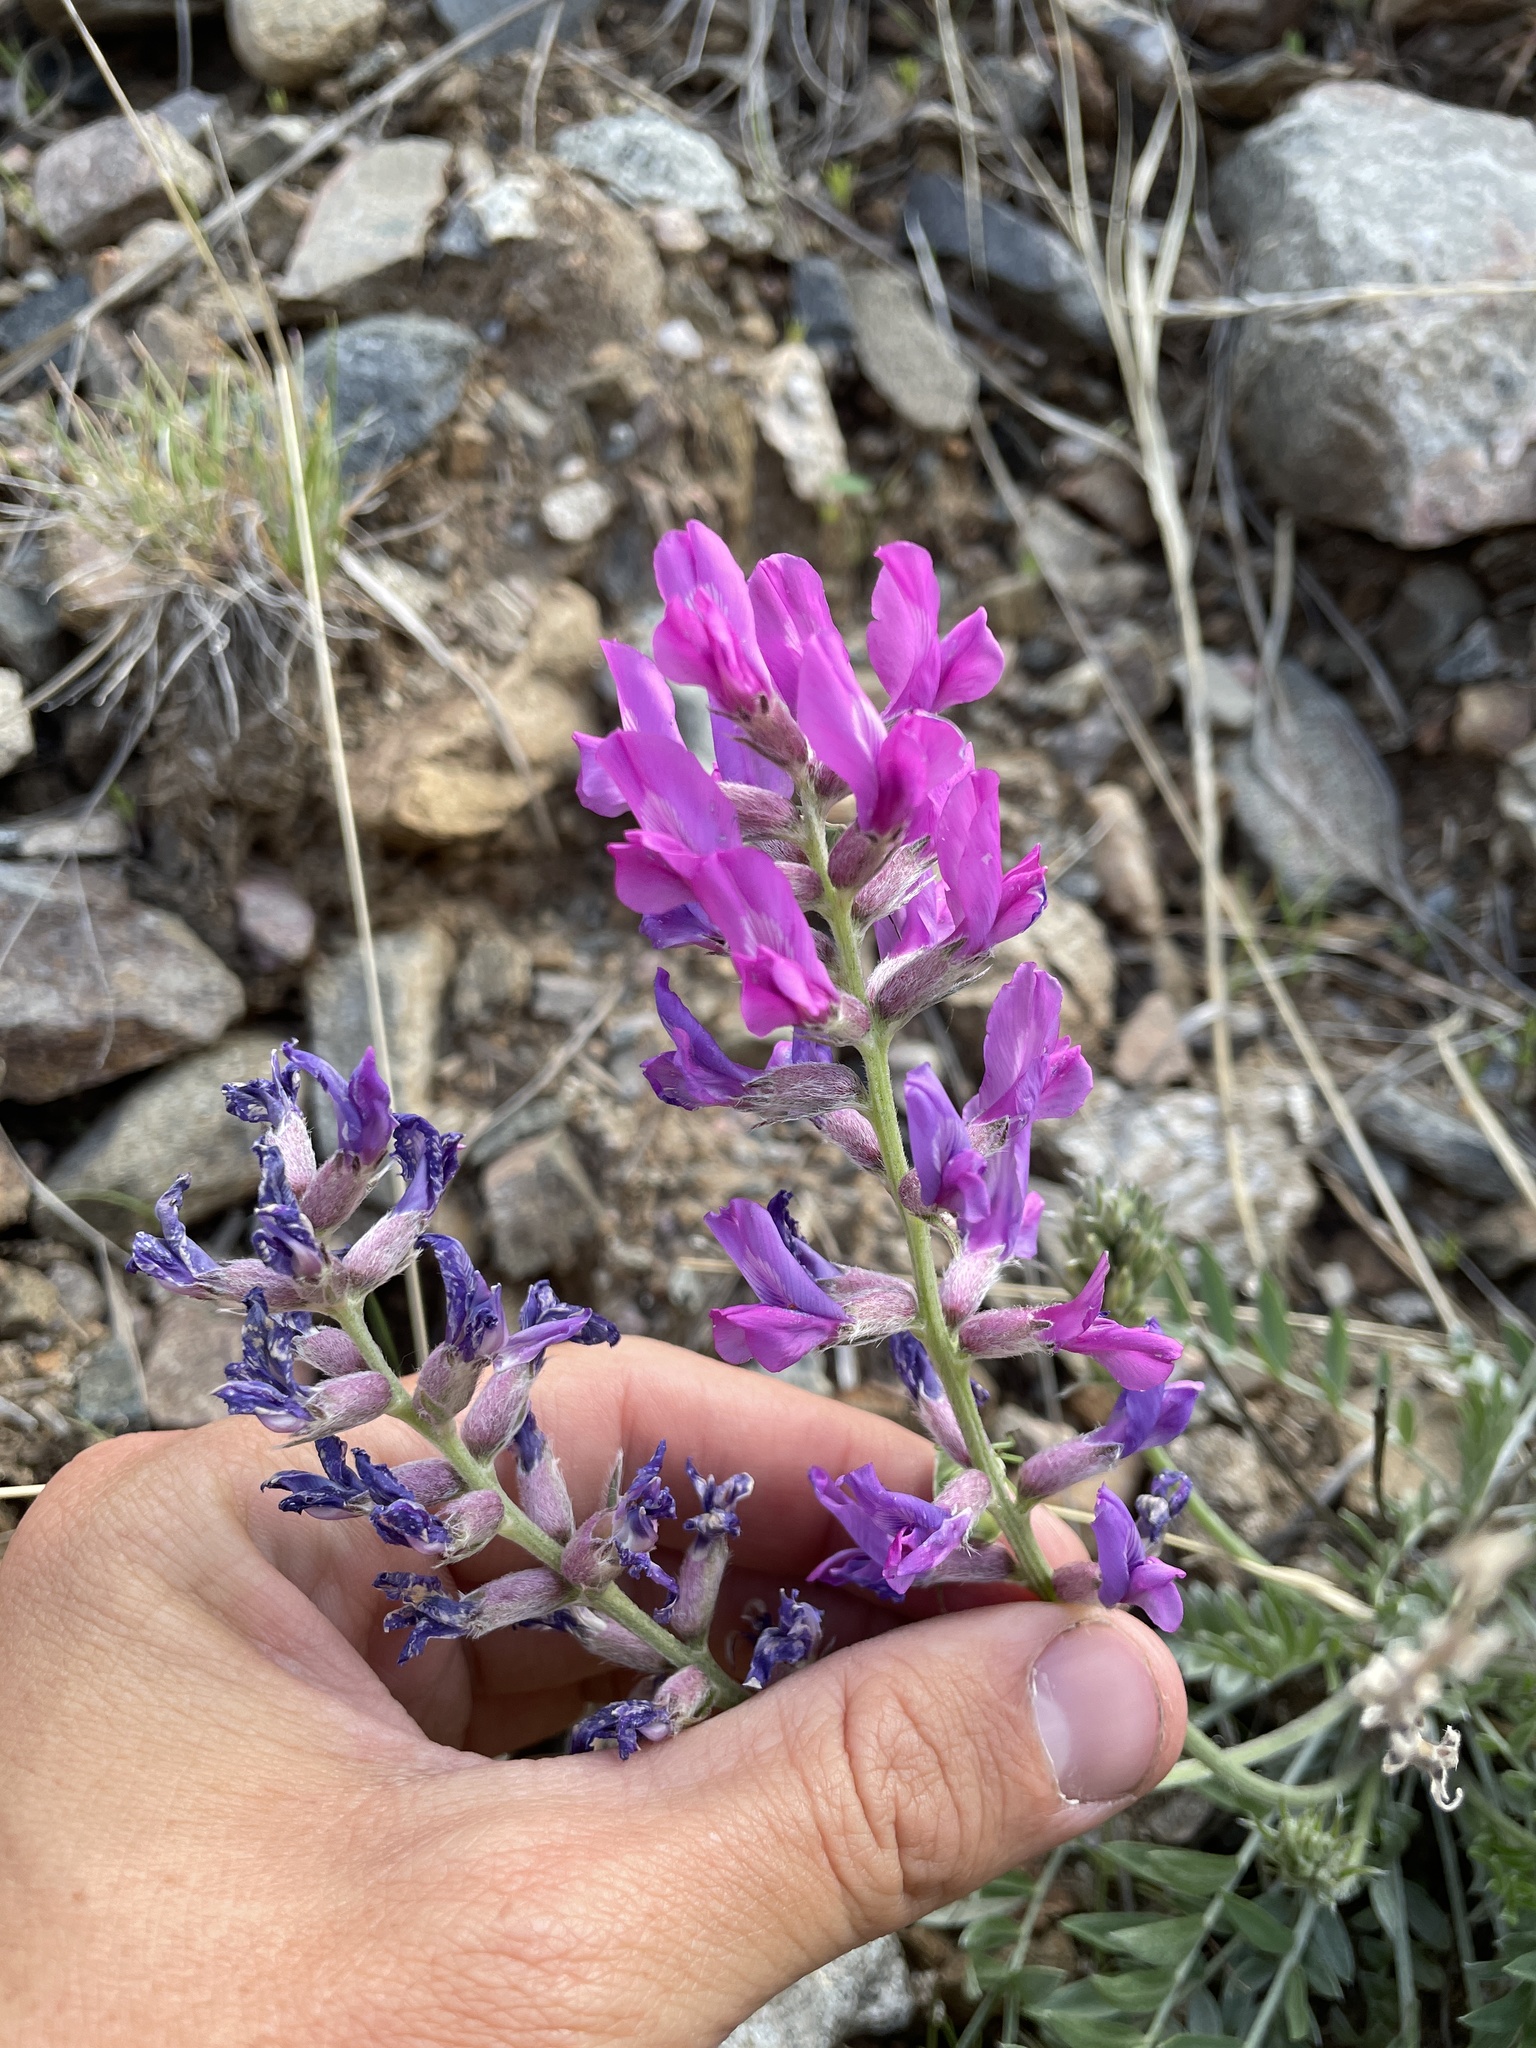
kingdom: Plantae
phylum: Tracheophyta
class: Magnoliopsida
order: Fabales
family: Fabaceae
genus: Oxytropis
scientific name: Oxytropis lambertii
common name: Purple locoweed
